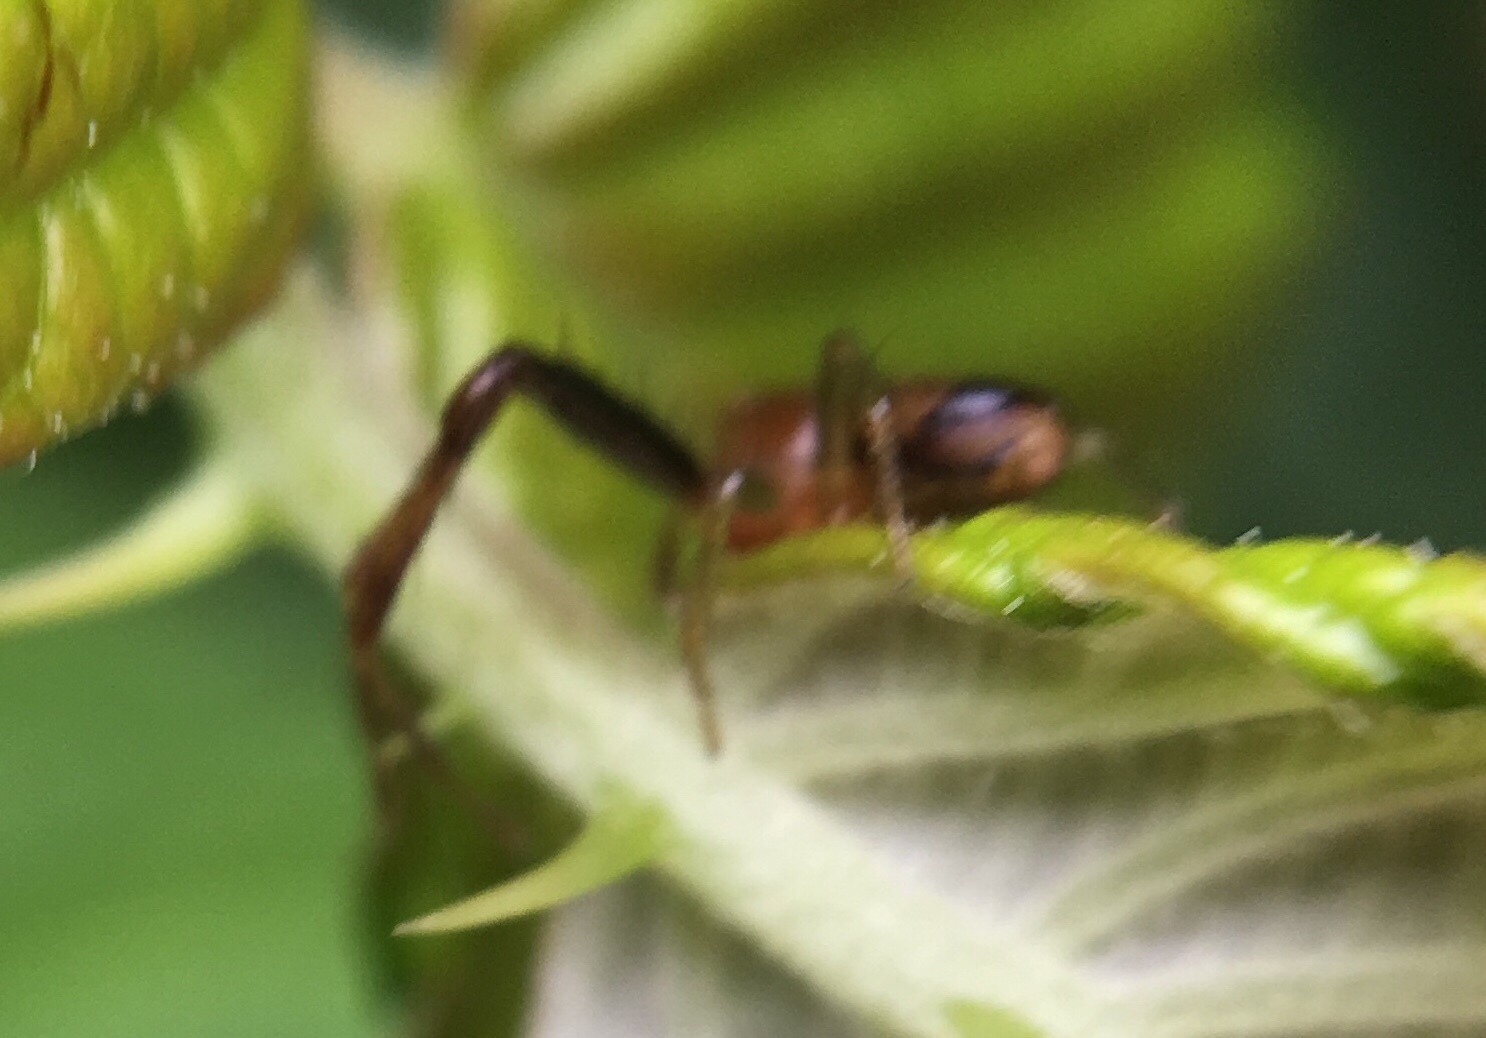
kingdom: Animalia
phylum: Arthropoda
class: Arachnida
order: Araneae
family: Thomisidae
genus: Synema
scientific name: Synema parvulum
